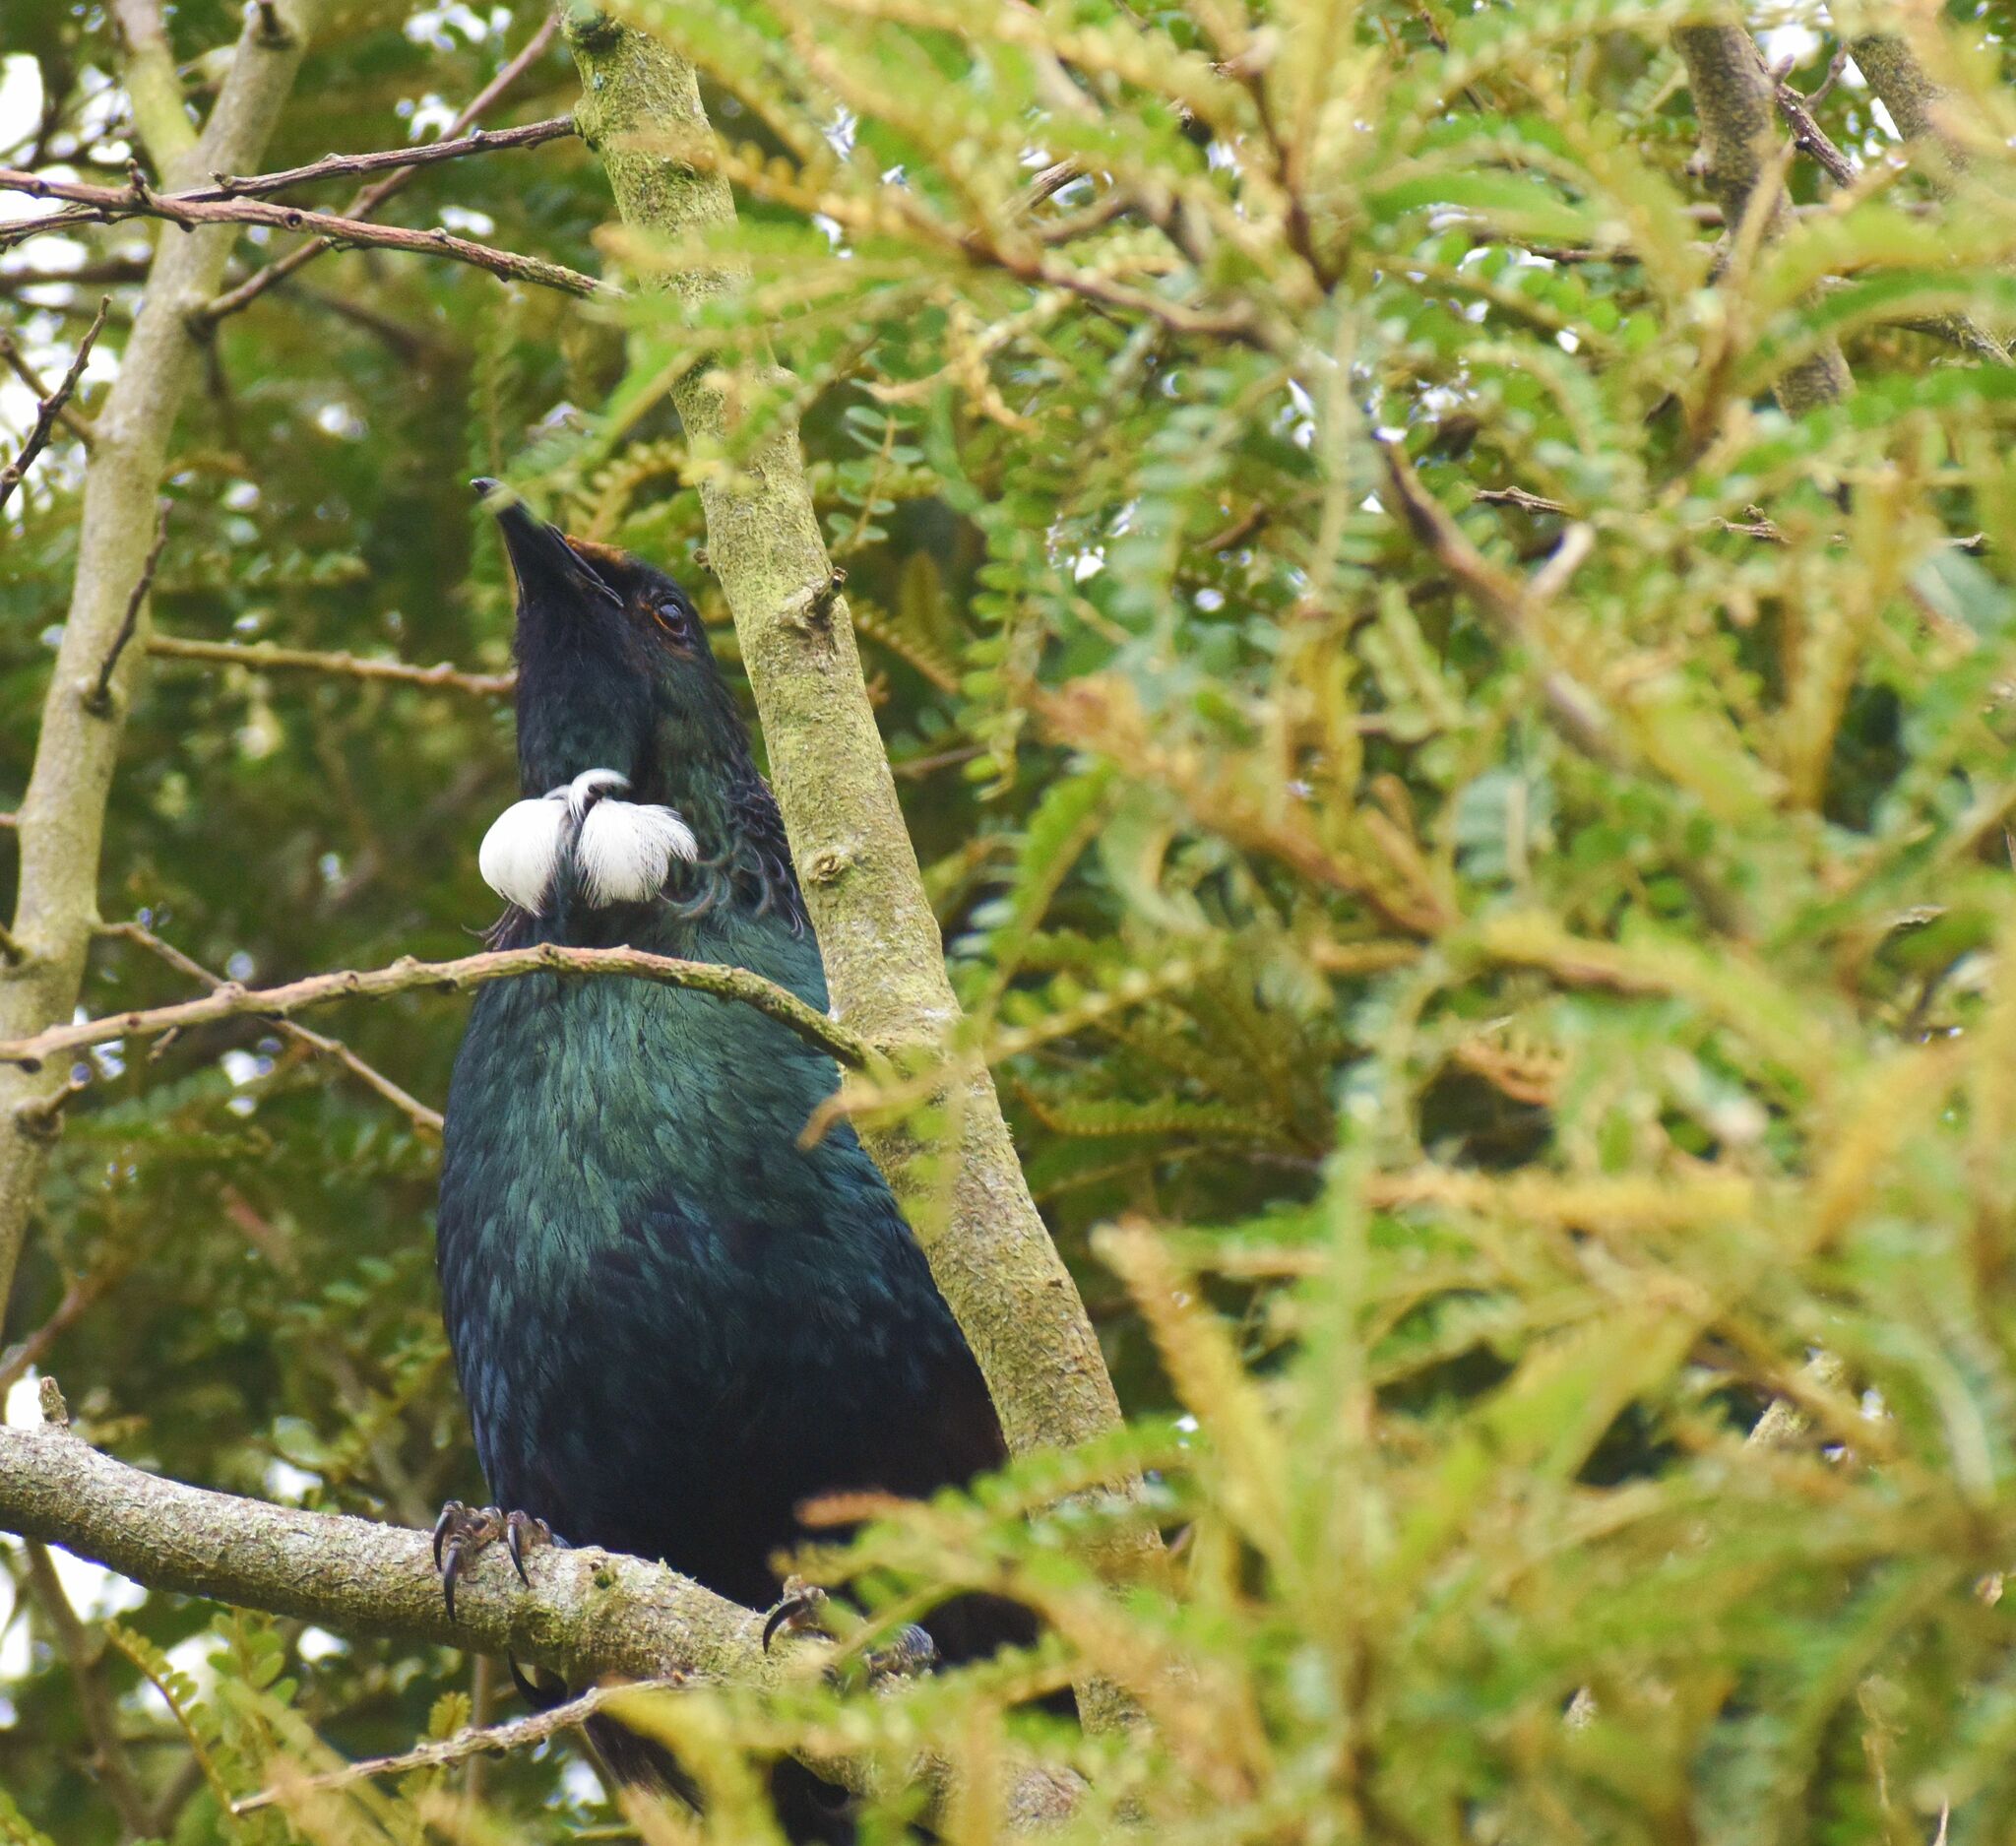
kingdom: Animalia
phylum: Chordata
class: Aves
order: Passeriformes
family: Meliphagidae
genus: Prosthemadera
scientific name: Prosthemadera novaeseelandiae
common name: Tui
